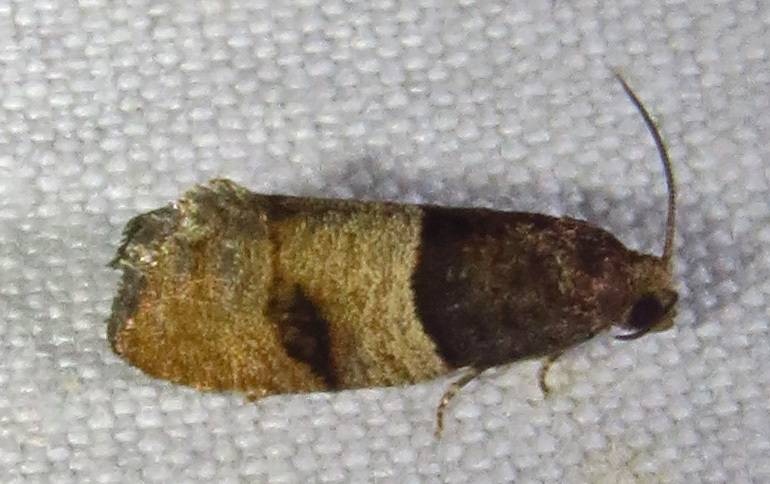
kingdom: Animalia
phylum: Arthropoda
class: Insecta
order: Lepidoptera
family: Tortricidae
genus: Larisa
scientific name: Larisa subsolana
